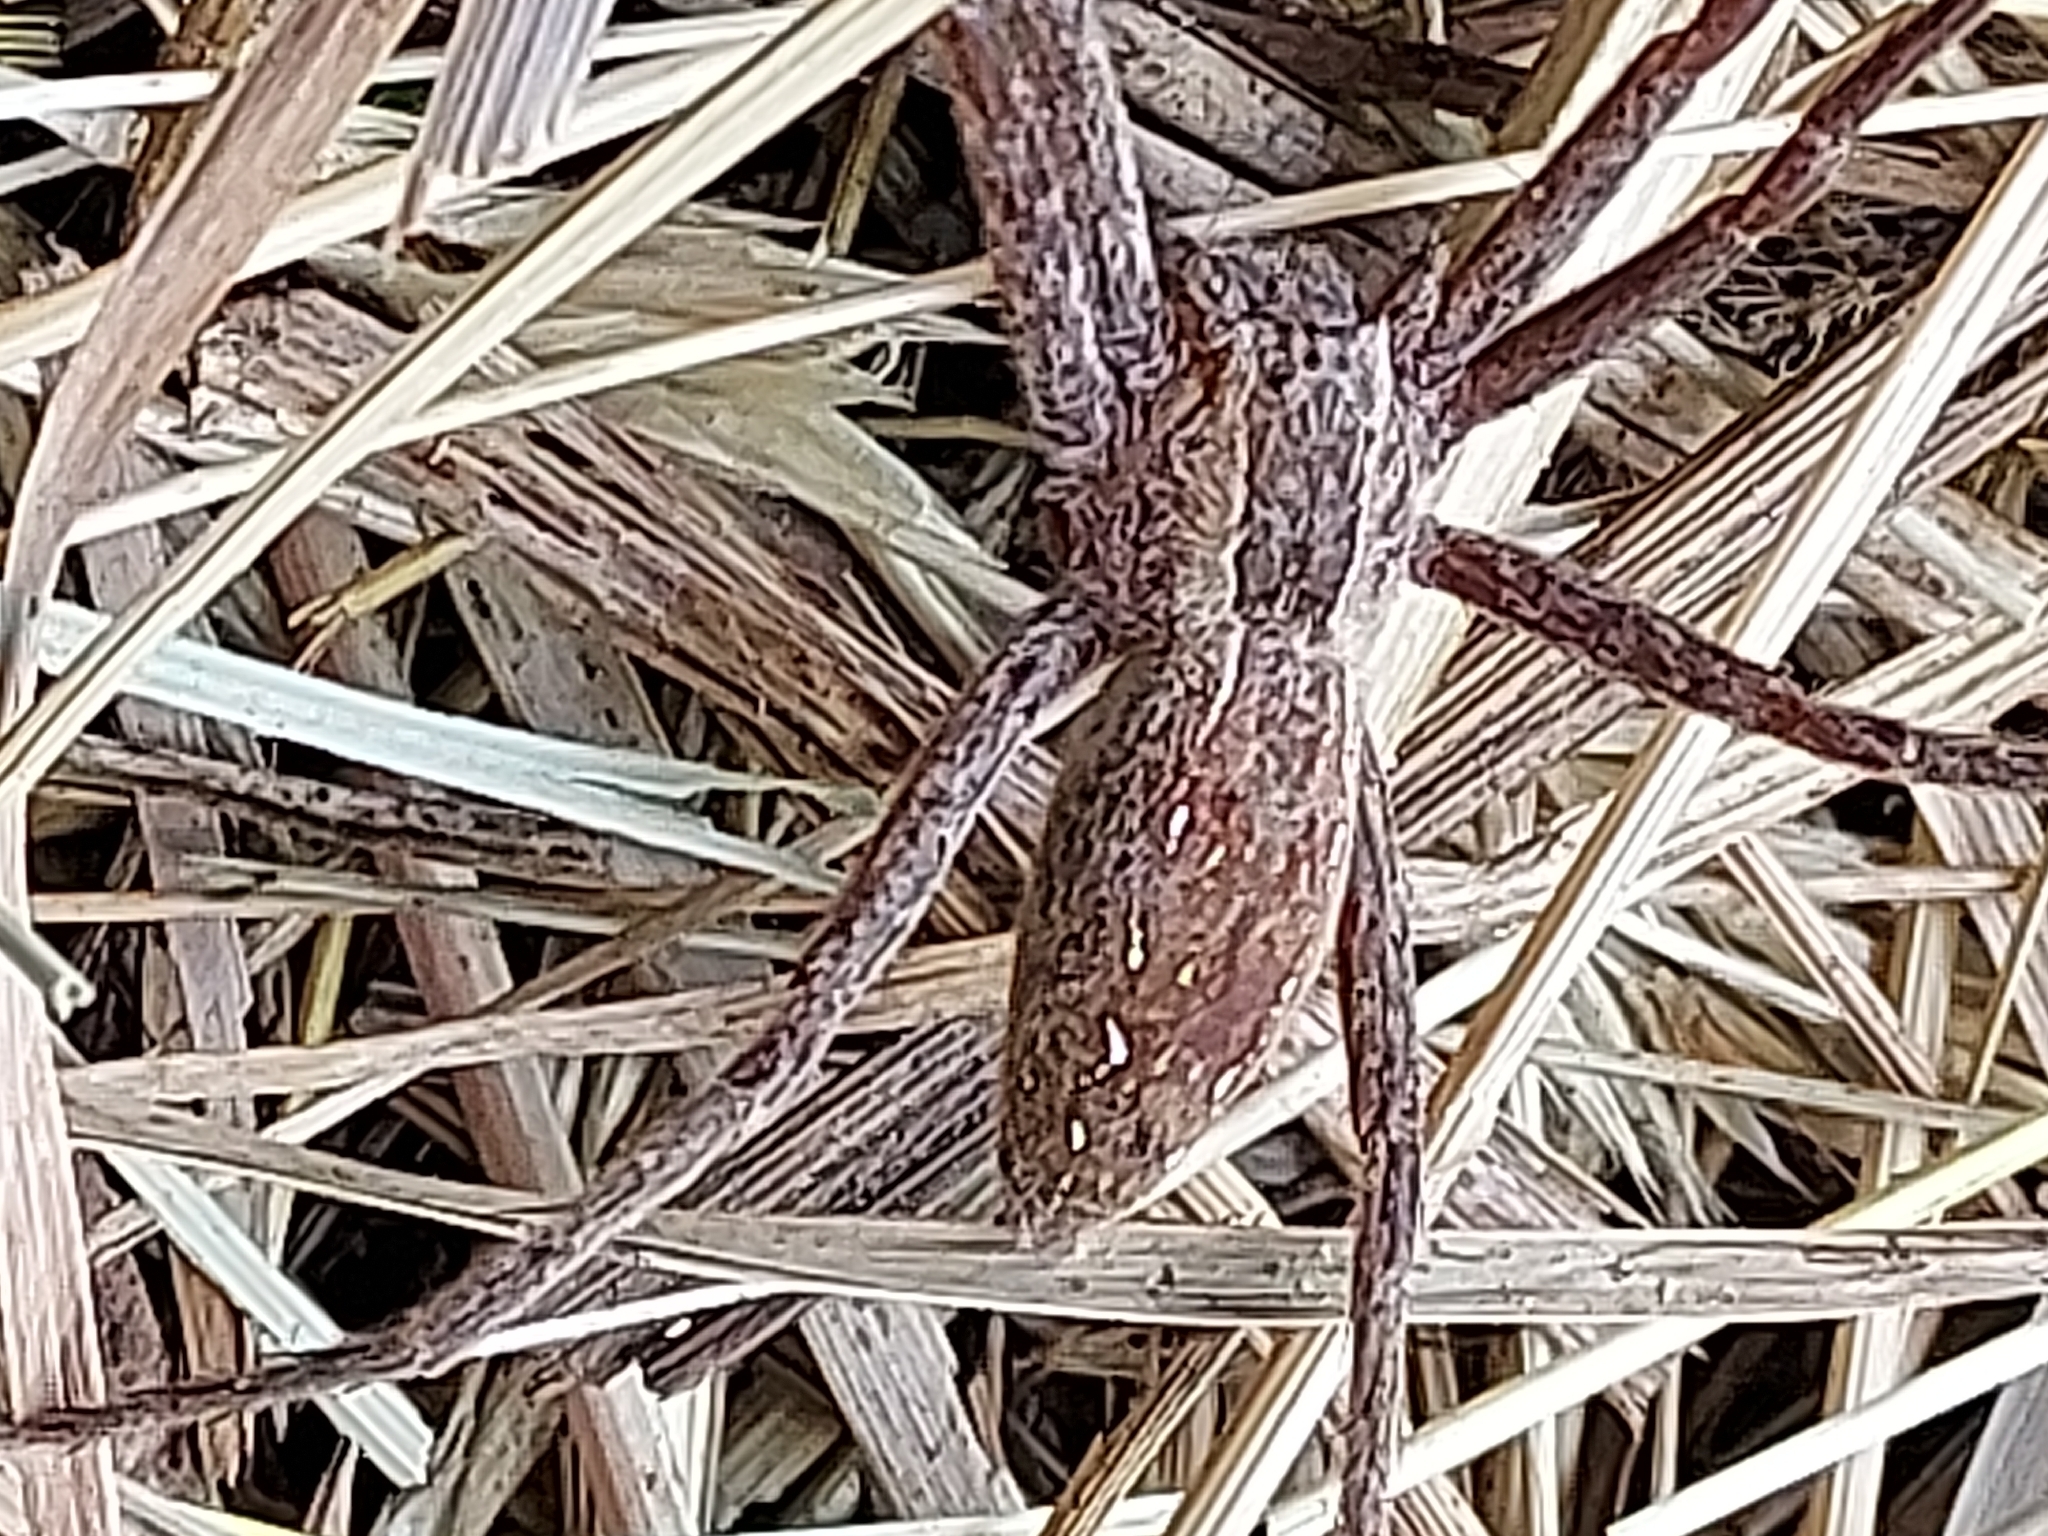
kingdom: Animalia
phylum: Arthropoda
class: Arachnida
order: Araneae
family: Pisauridae
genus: Pisaurina
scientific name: Pisaurina mira
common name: American nursery web spider
